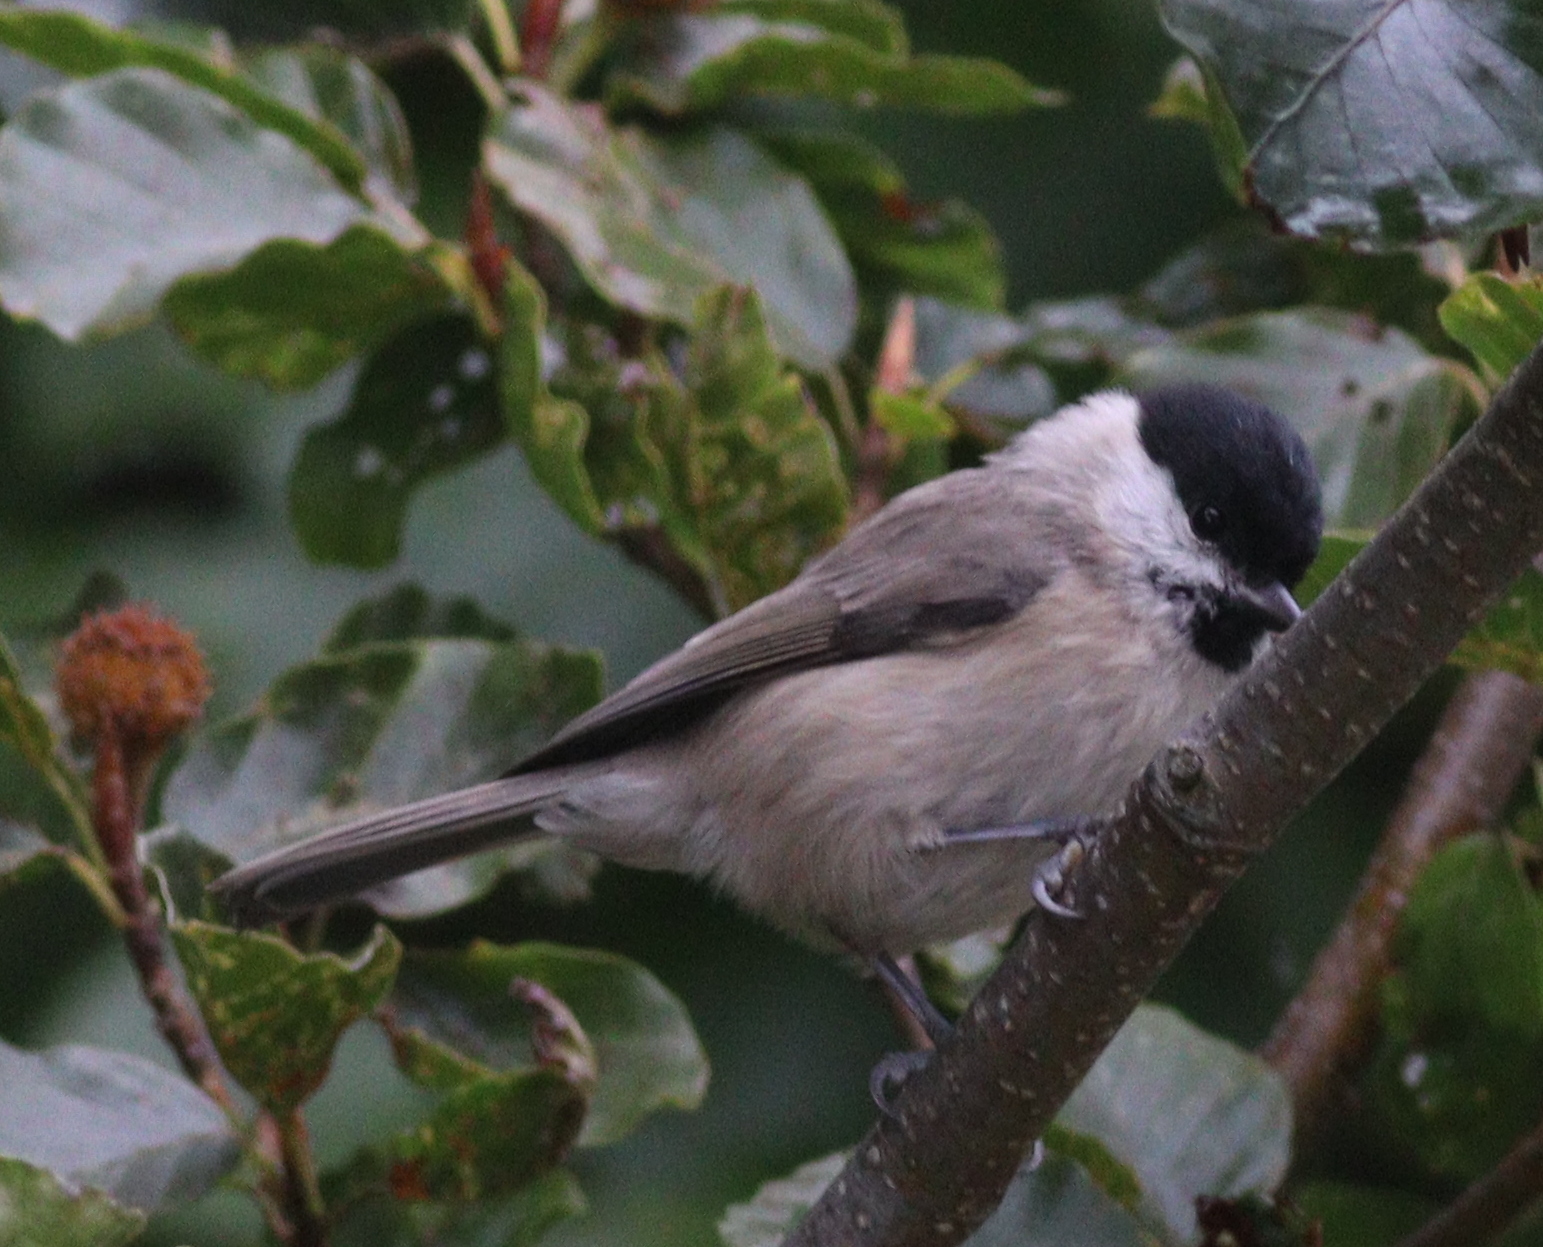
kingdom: Animalia
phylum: Chordata
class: Aves
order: Passeriformes
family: Paridae
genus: Poecile
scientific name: Poecile palustris
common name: Marsh tit
